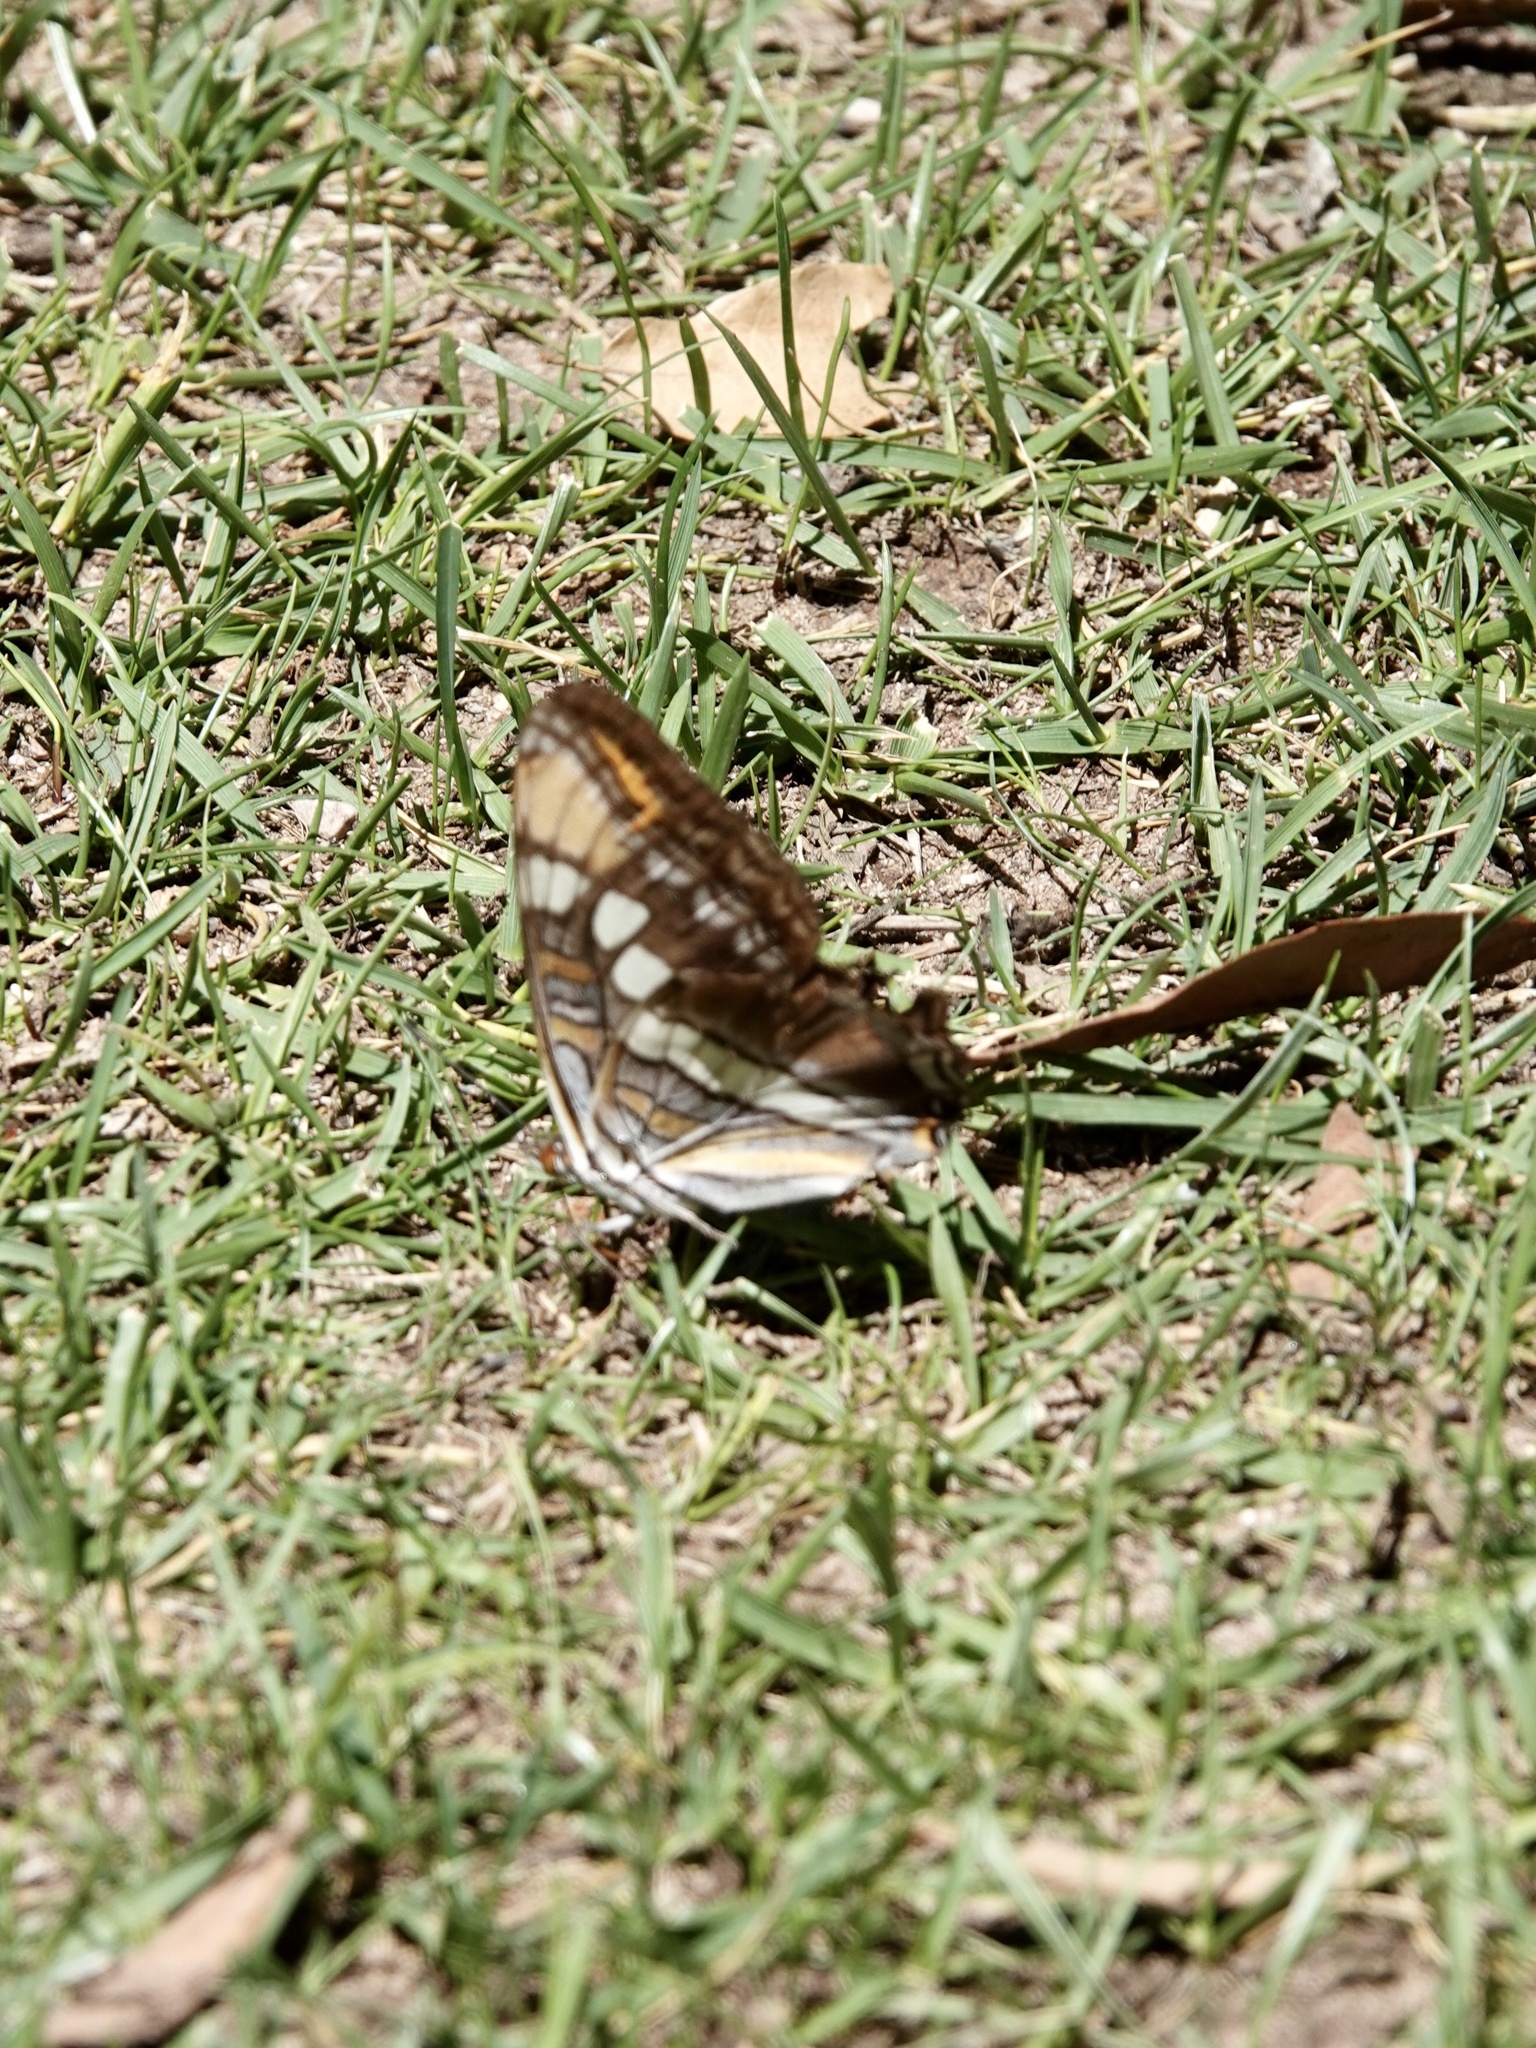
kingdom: Animalia
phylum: Arthropoda
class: Insecta
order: Lepidoptera
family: Nymphalidae
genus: Limenitis
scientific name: Limenitis bredowii
